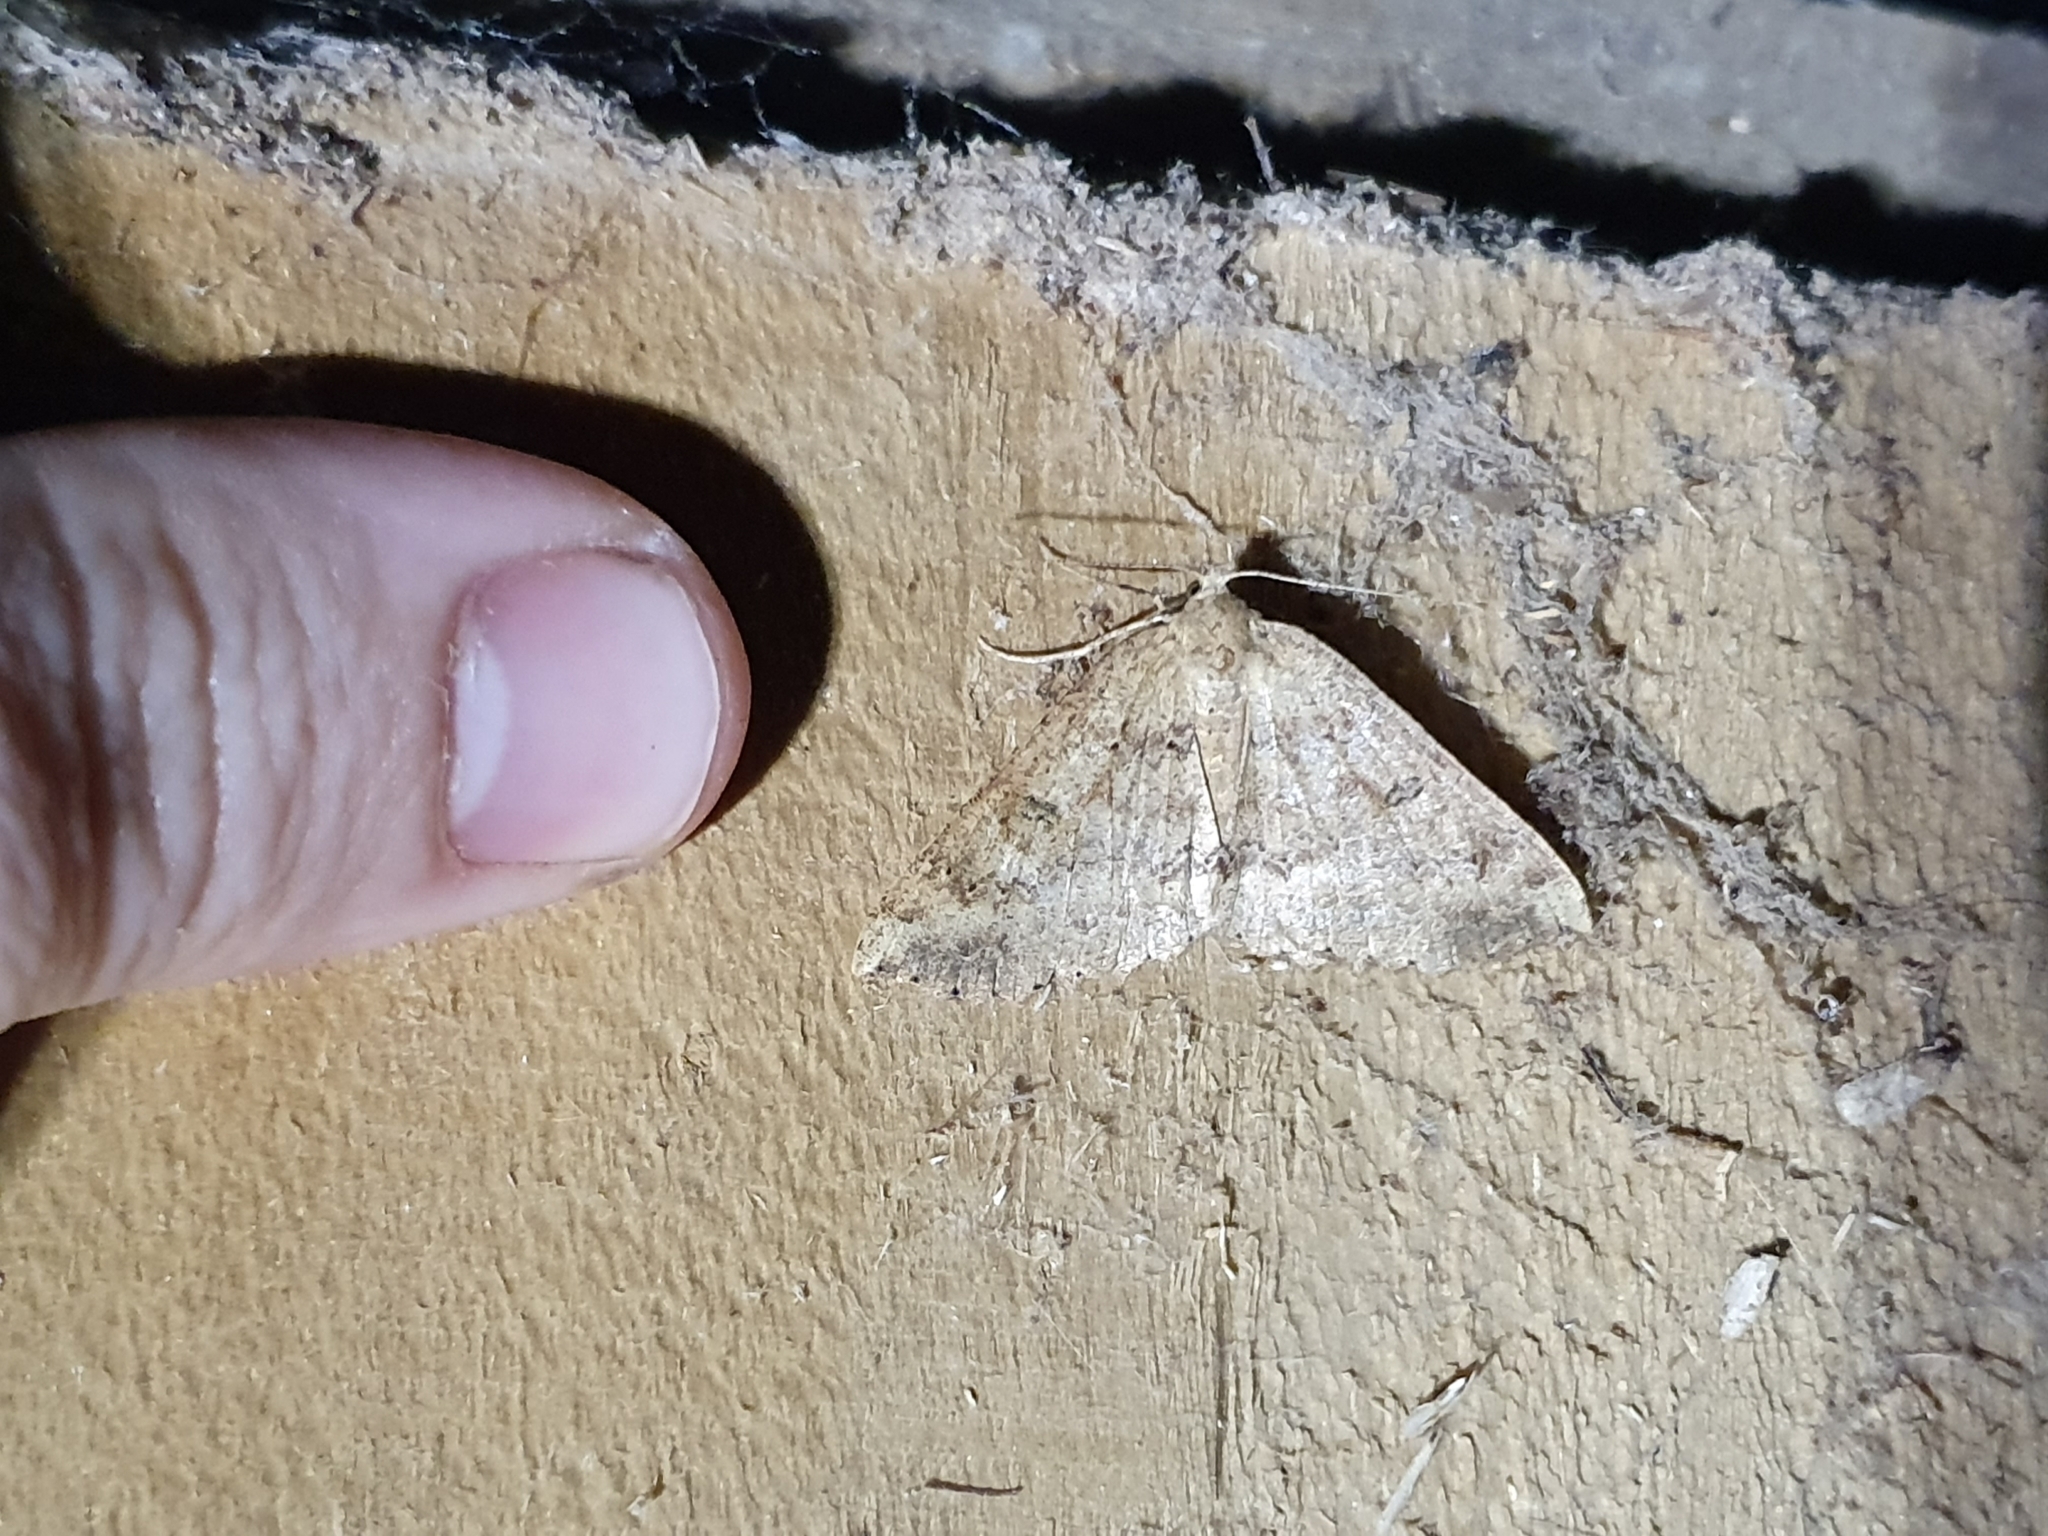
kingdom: Animalia
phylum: Arthropoda
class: Insecta
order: Lepidoptera
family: Geometridae
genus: Cleora
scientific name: Cleora scriptaria
